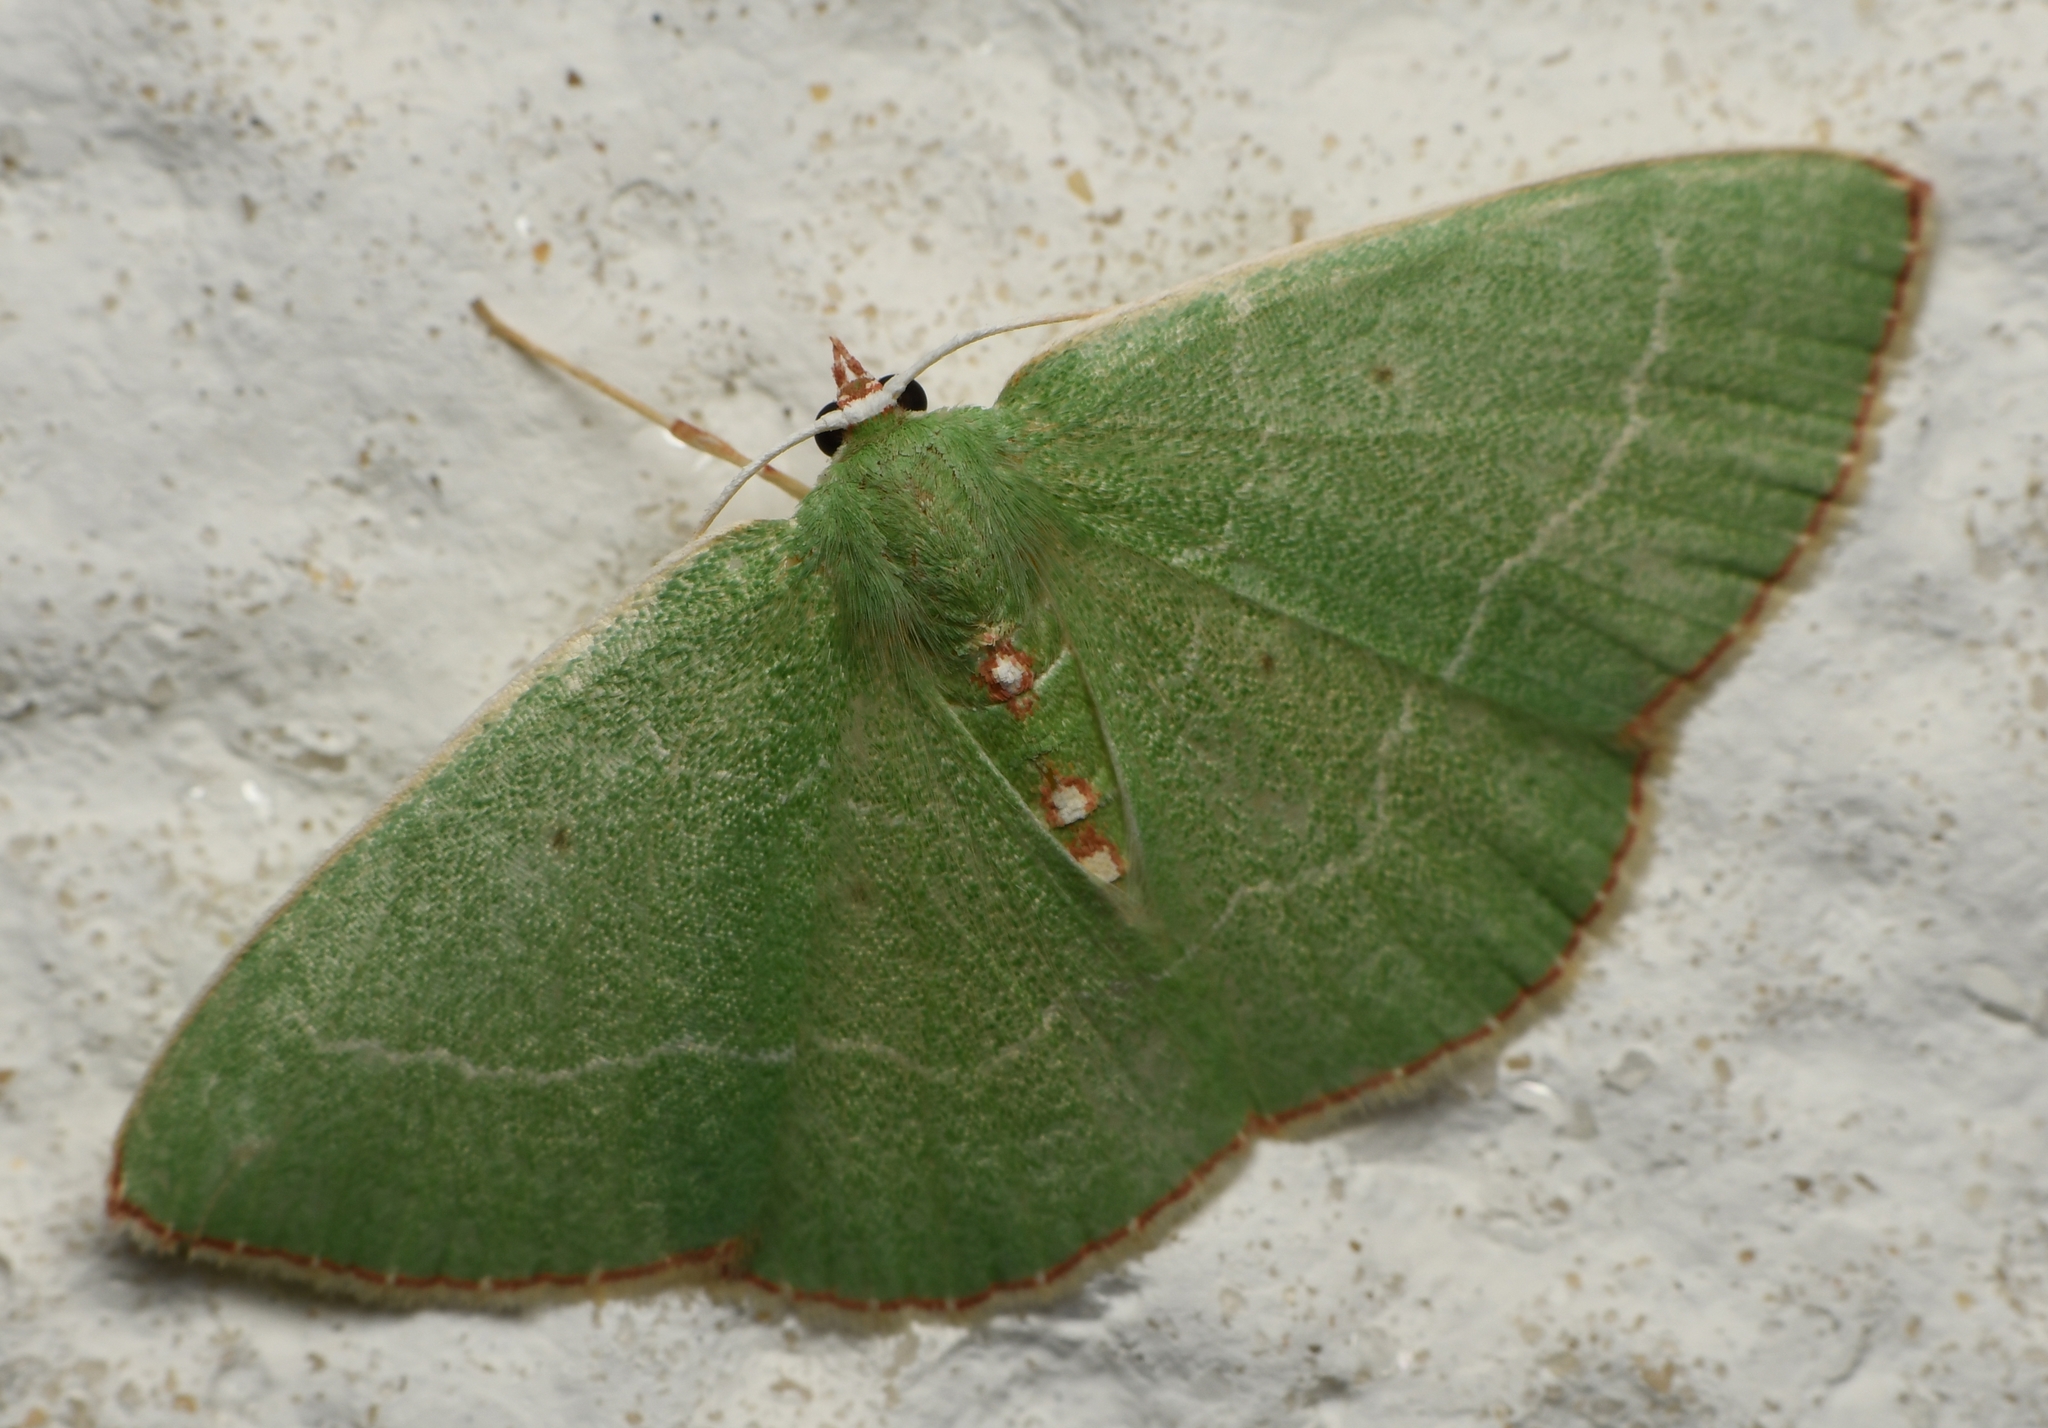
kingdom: Animalia
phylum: Arthropoda
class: Insecta
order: Lepidoptera
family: Geometridae
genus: Nemoria
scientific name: Nemoria lixaria
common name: Red-bordered emerald
